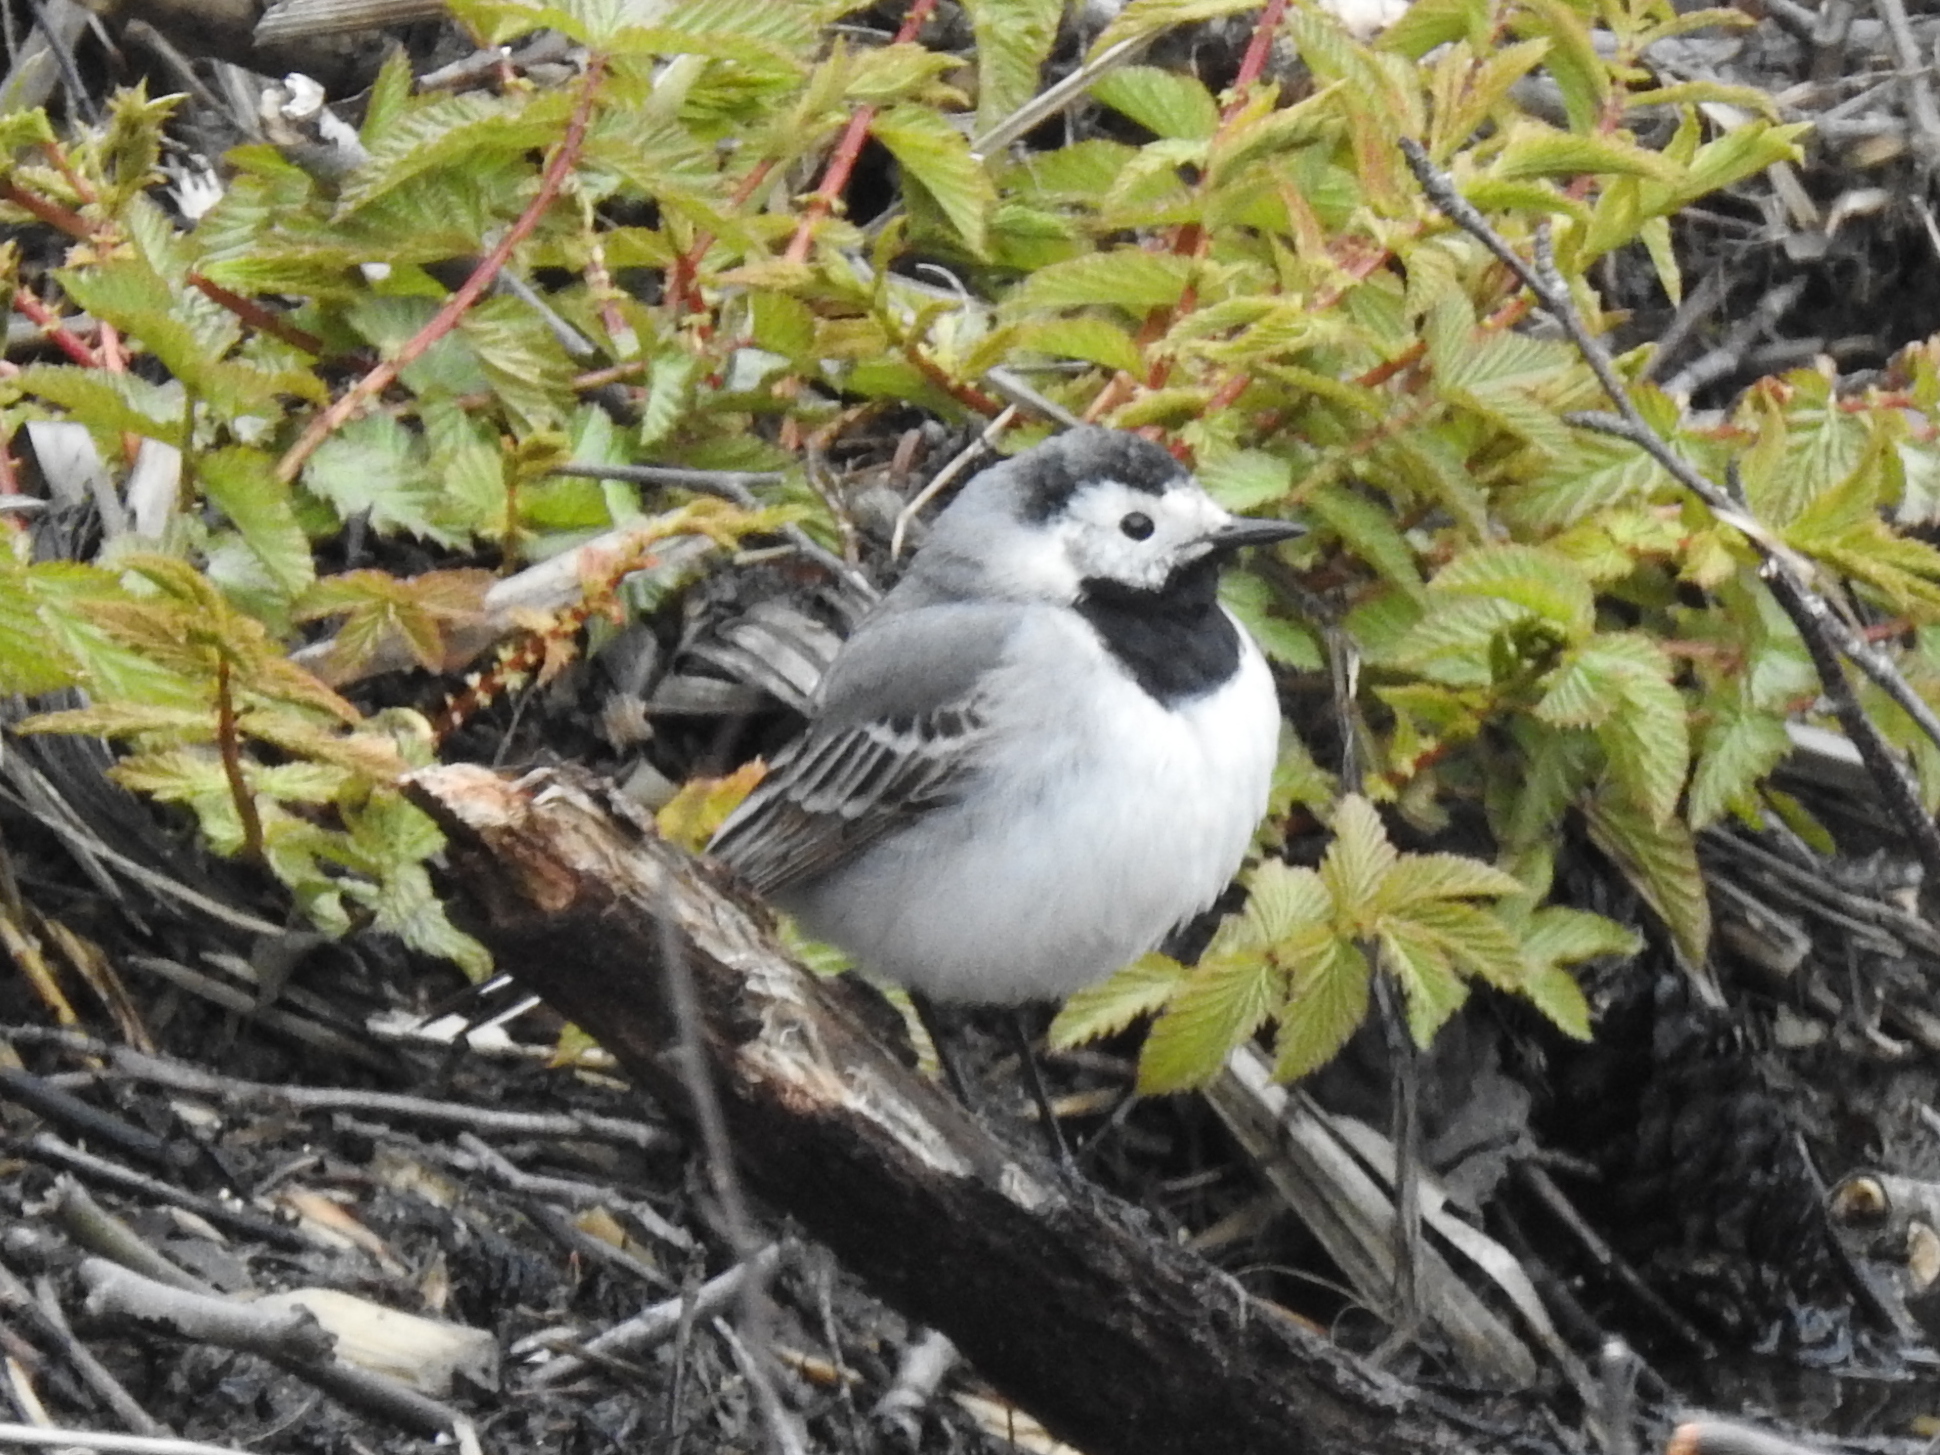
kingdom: Animalia
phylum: Chordata
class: Aves
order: Passeriformes
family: Motacillidae
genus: Motacilla
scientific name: Motacilla alba
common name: White wagtail
